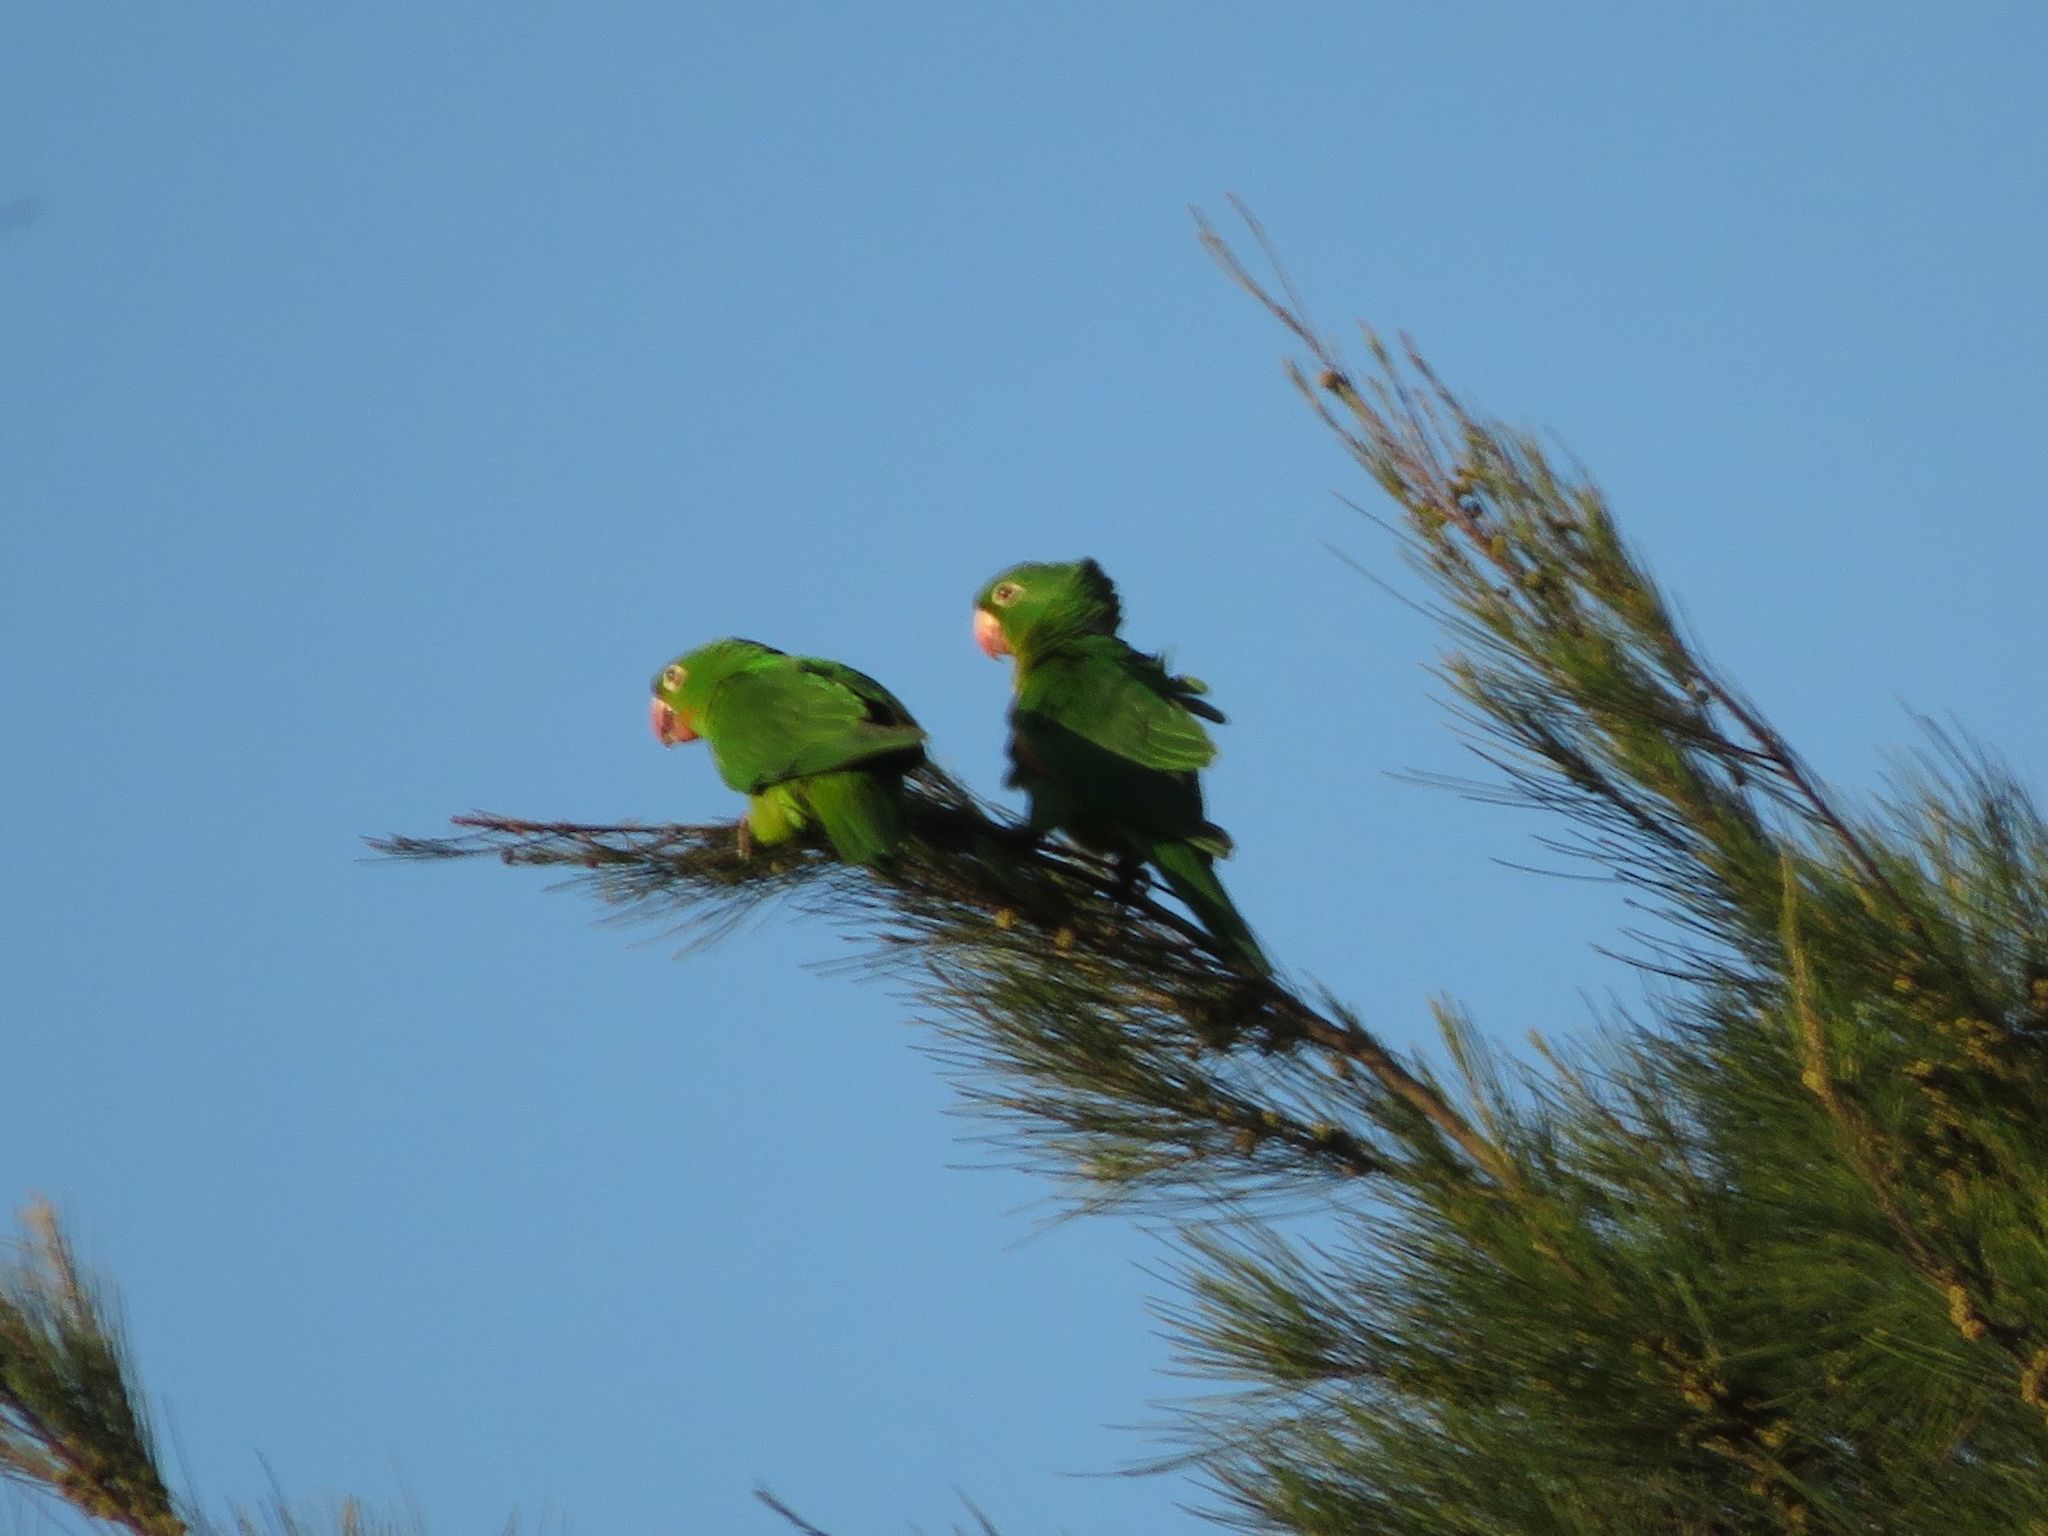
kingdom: Animalia
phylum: Chordata
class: Aves
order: Psittaciformes
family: Psittacidae
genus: Aratinga
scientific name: Aratinga leucophthalma
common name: White-eyed parakeet
